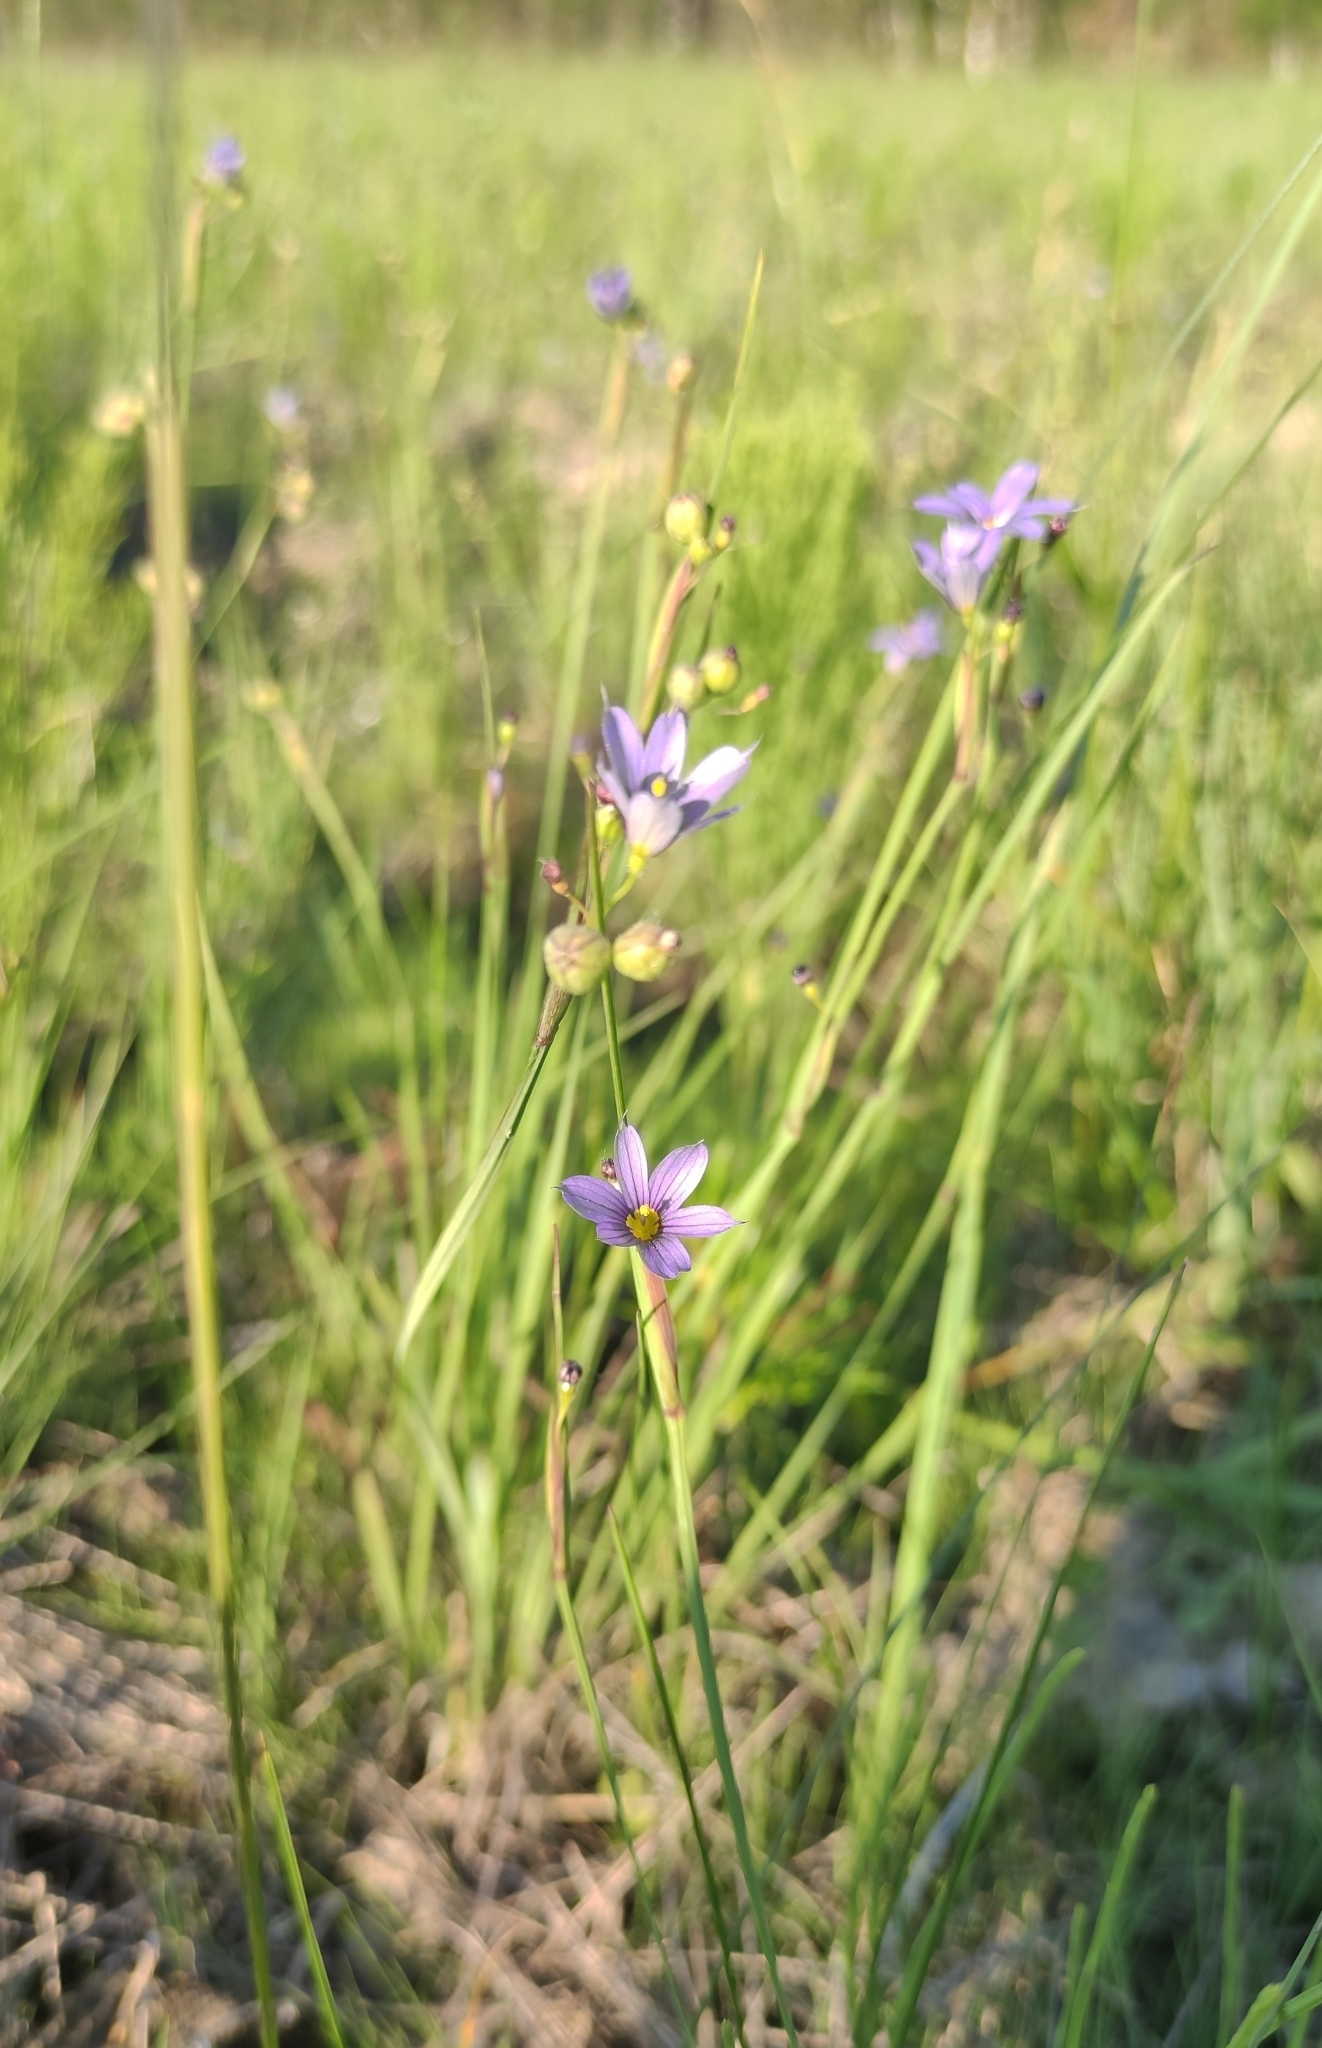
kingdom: Plantae
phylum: Tracheophyta
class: Liliopsida
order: Asparagales
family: Iridaceae
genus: Sisyrinchium
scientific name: Sisyrinchium montanum
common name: American blue-eyed-grass
